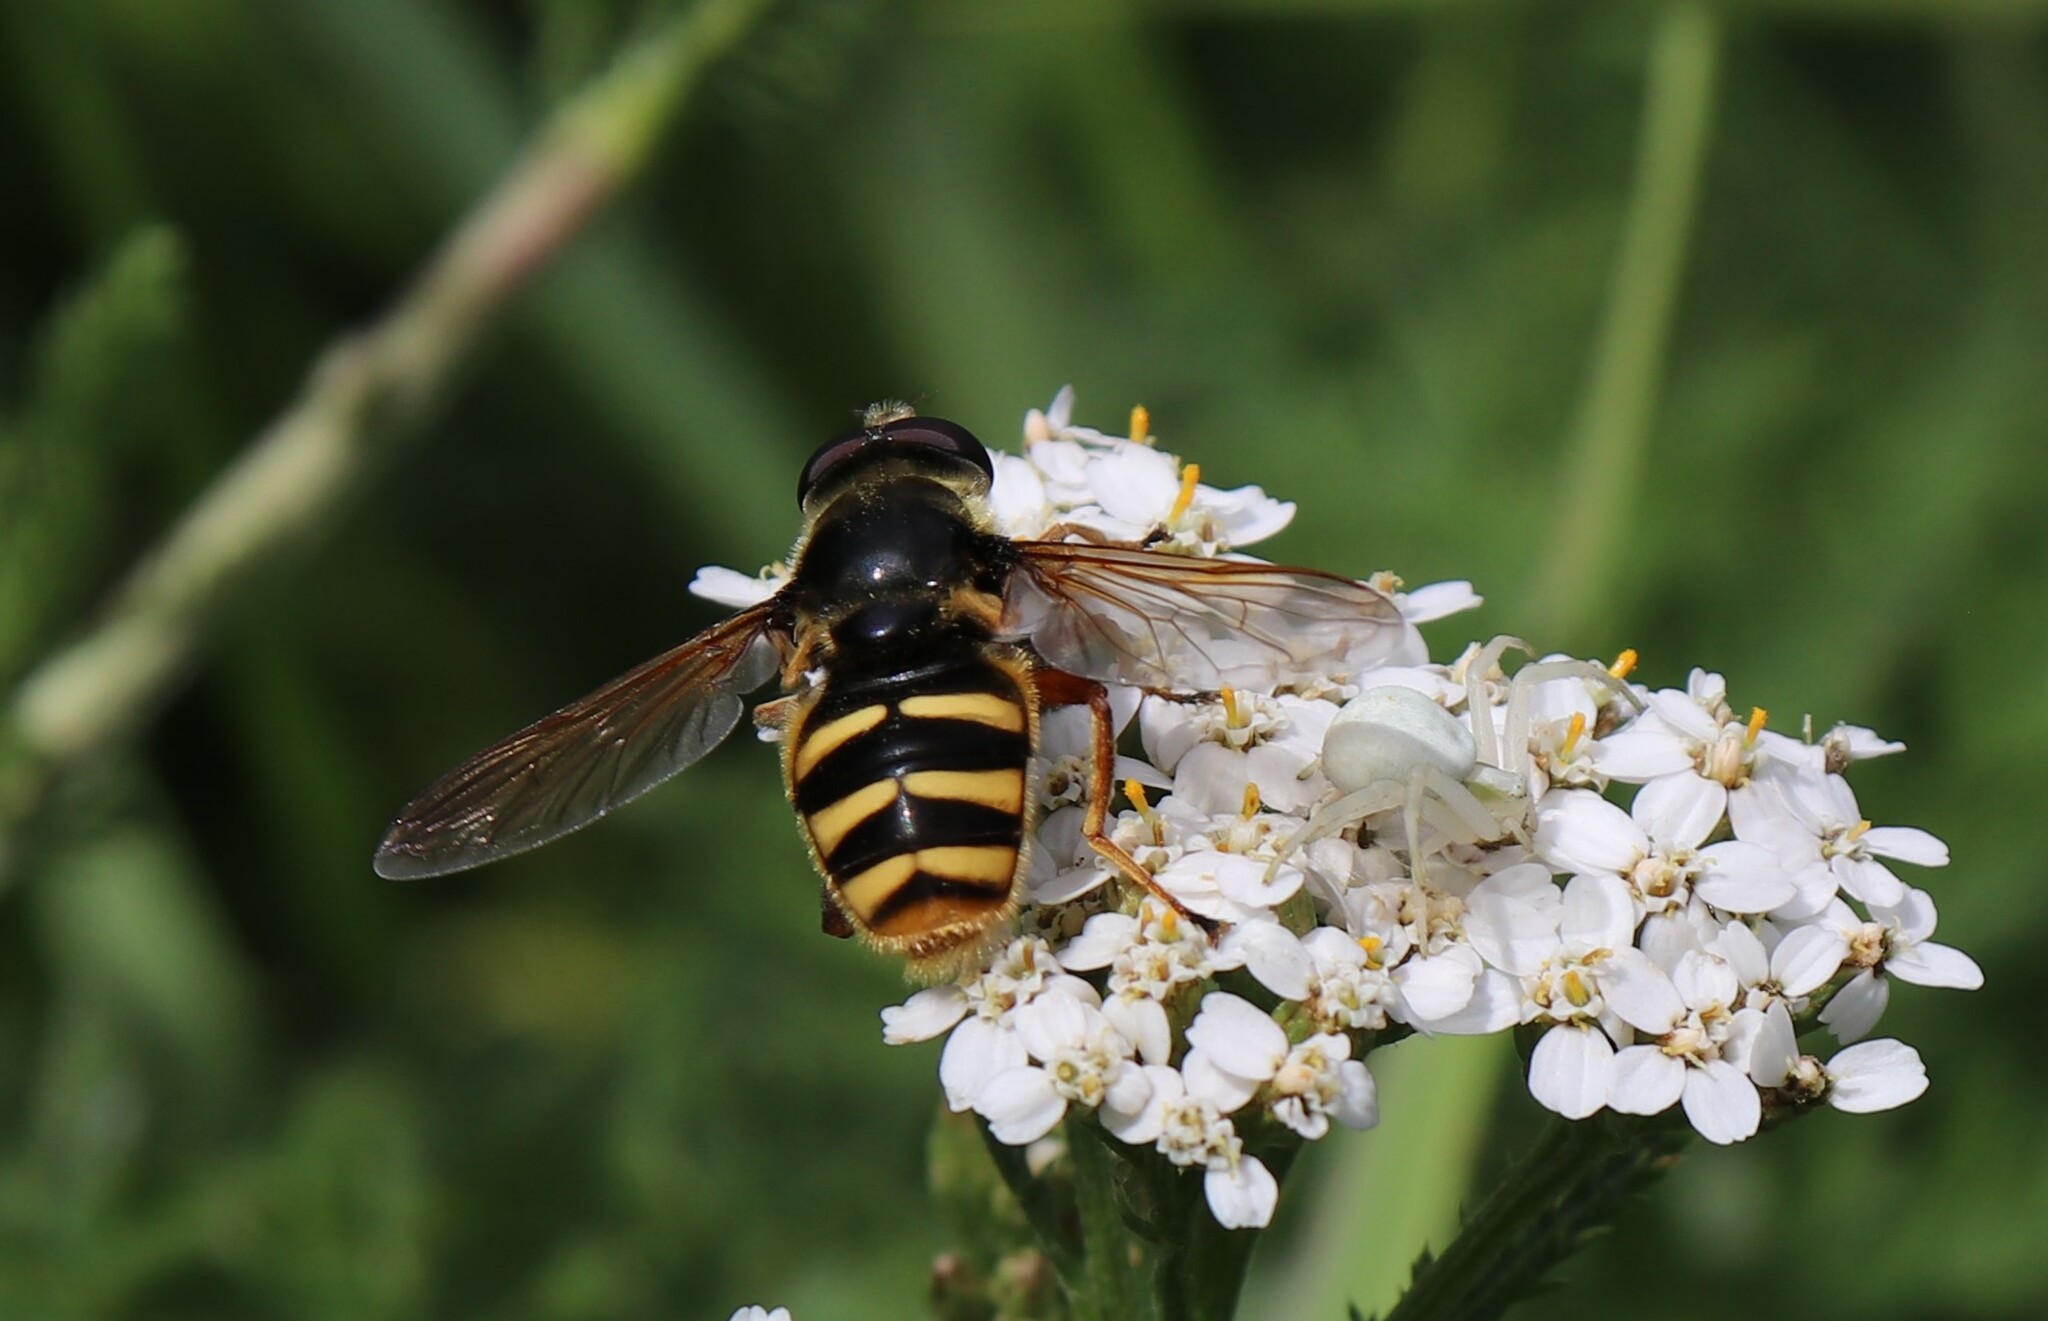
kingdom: Animalia
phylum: Arthropoda
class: Insecta
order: Diptera
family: Syrphidae
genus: Sericomyia
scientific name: Sericomyia silentis
